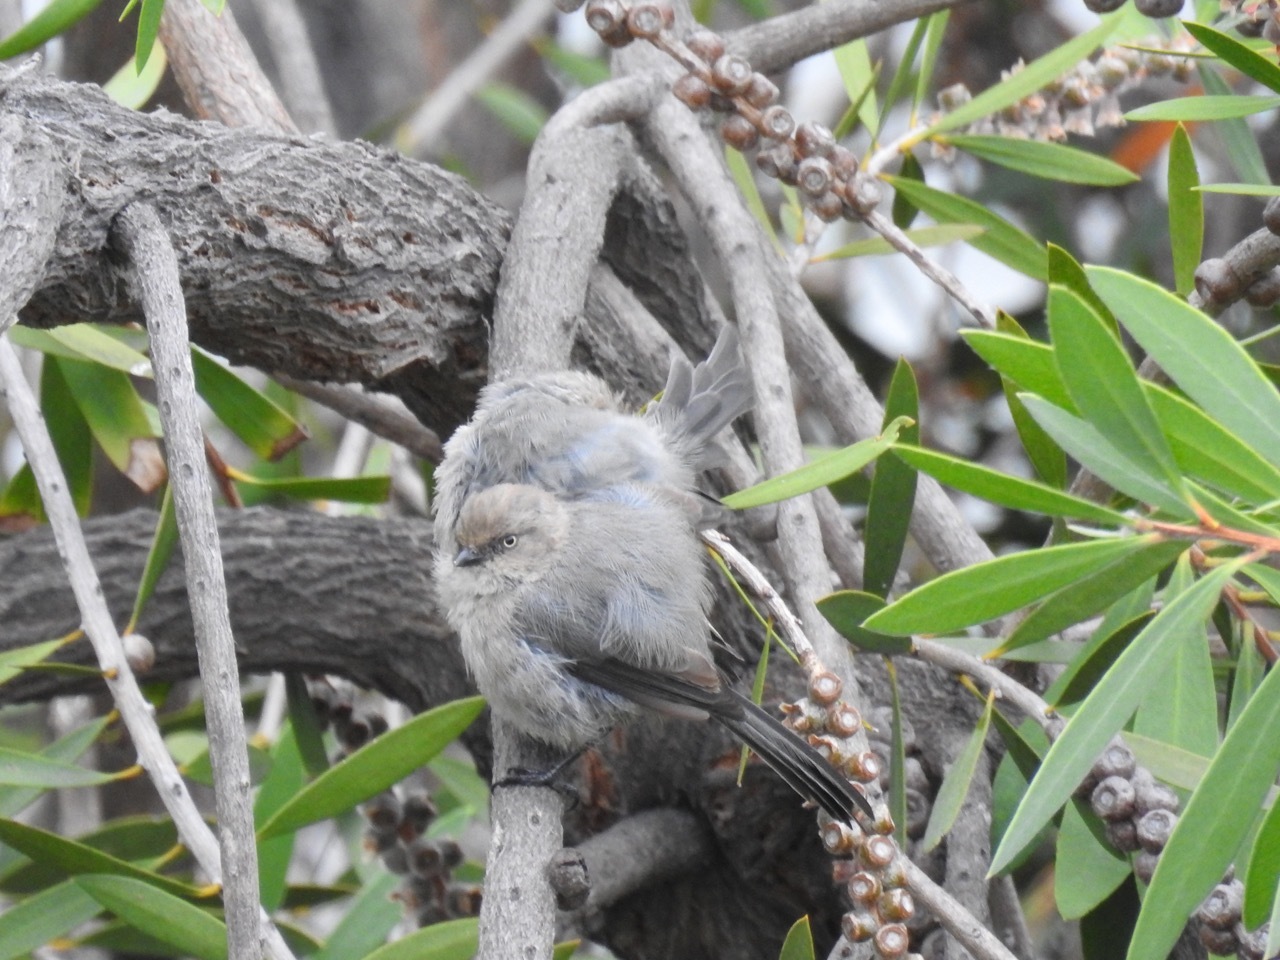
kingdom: Animalia
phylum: Chordata
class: Aves
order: Passeriformes
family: Aegithalidae
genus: Psaltriparus
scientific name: Psaltriparus minimus
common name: American bushtit
